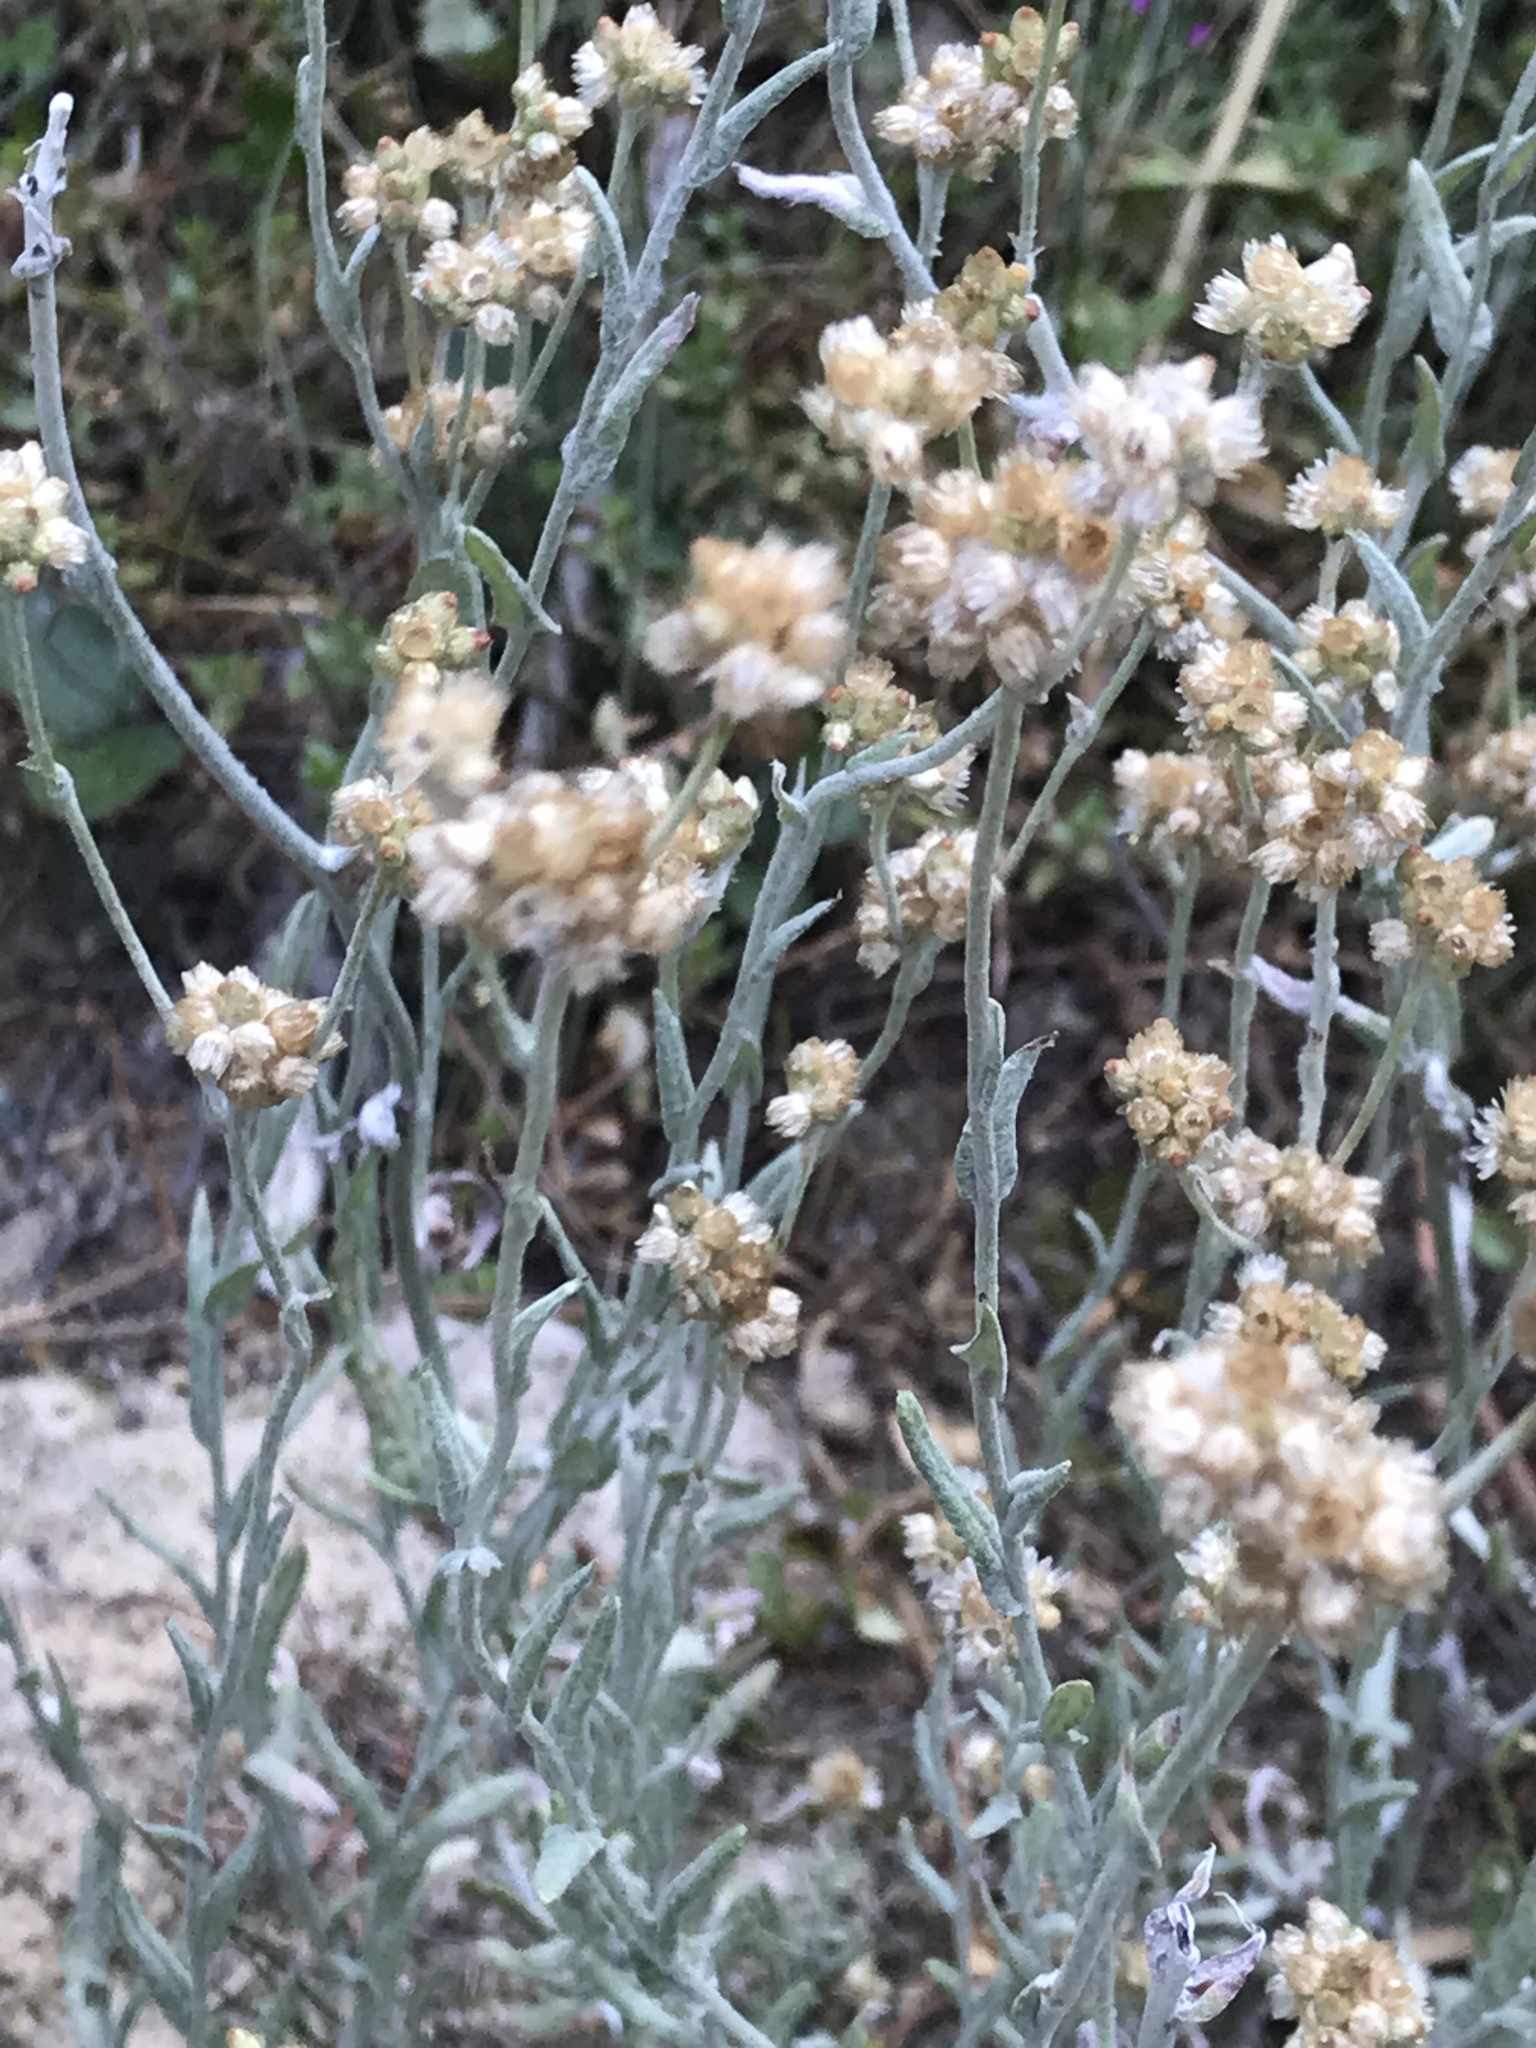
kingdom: Plantae
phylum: Tracheophyta
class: Magnoliopsida
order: Asterales
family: Asteraceae
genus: Helichrysum
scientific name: Helichrysum luteoalbum
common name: Daisy
